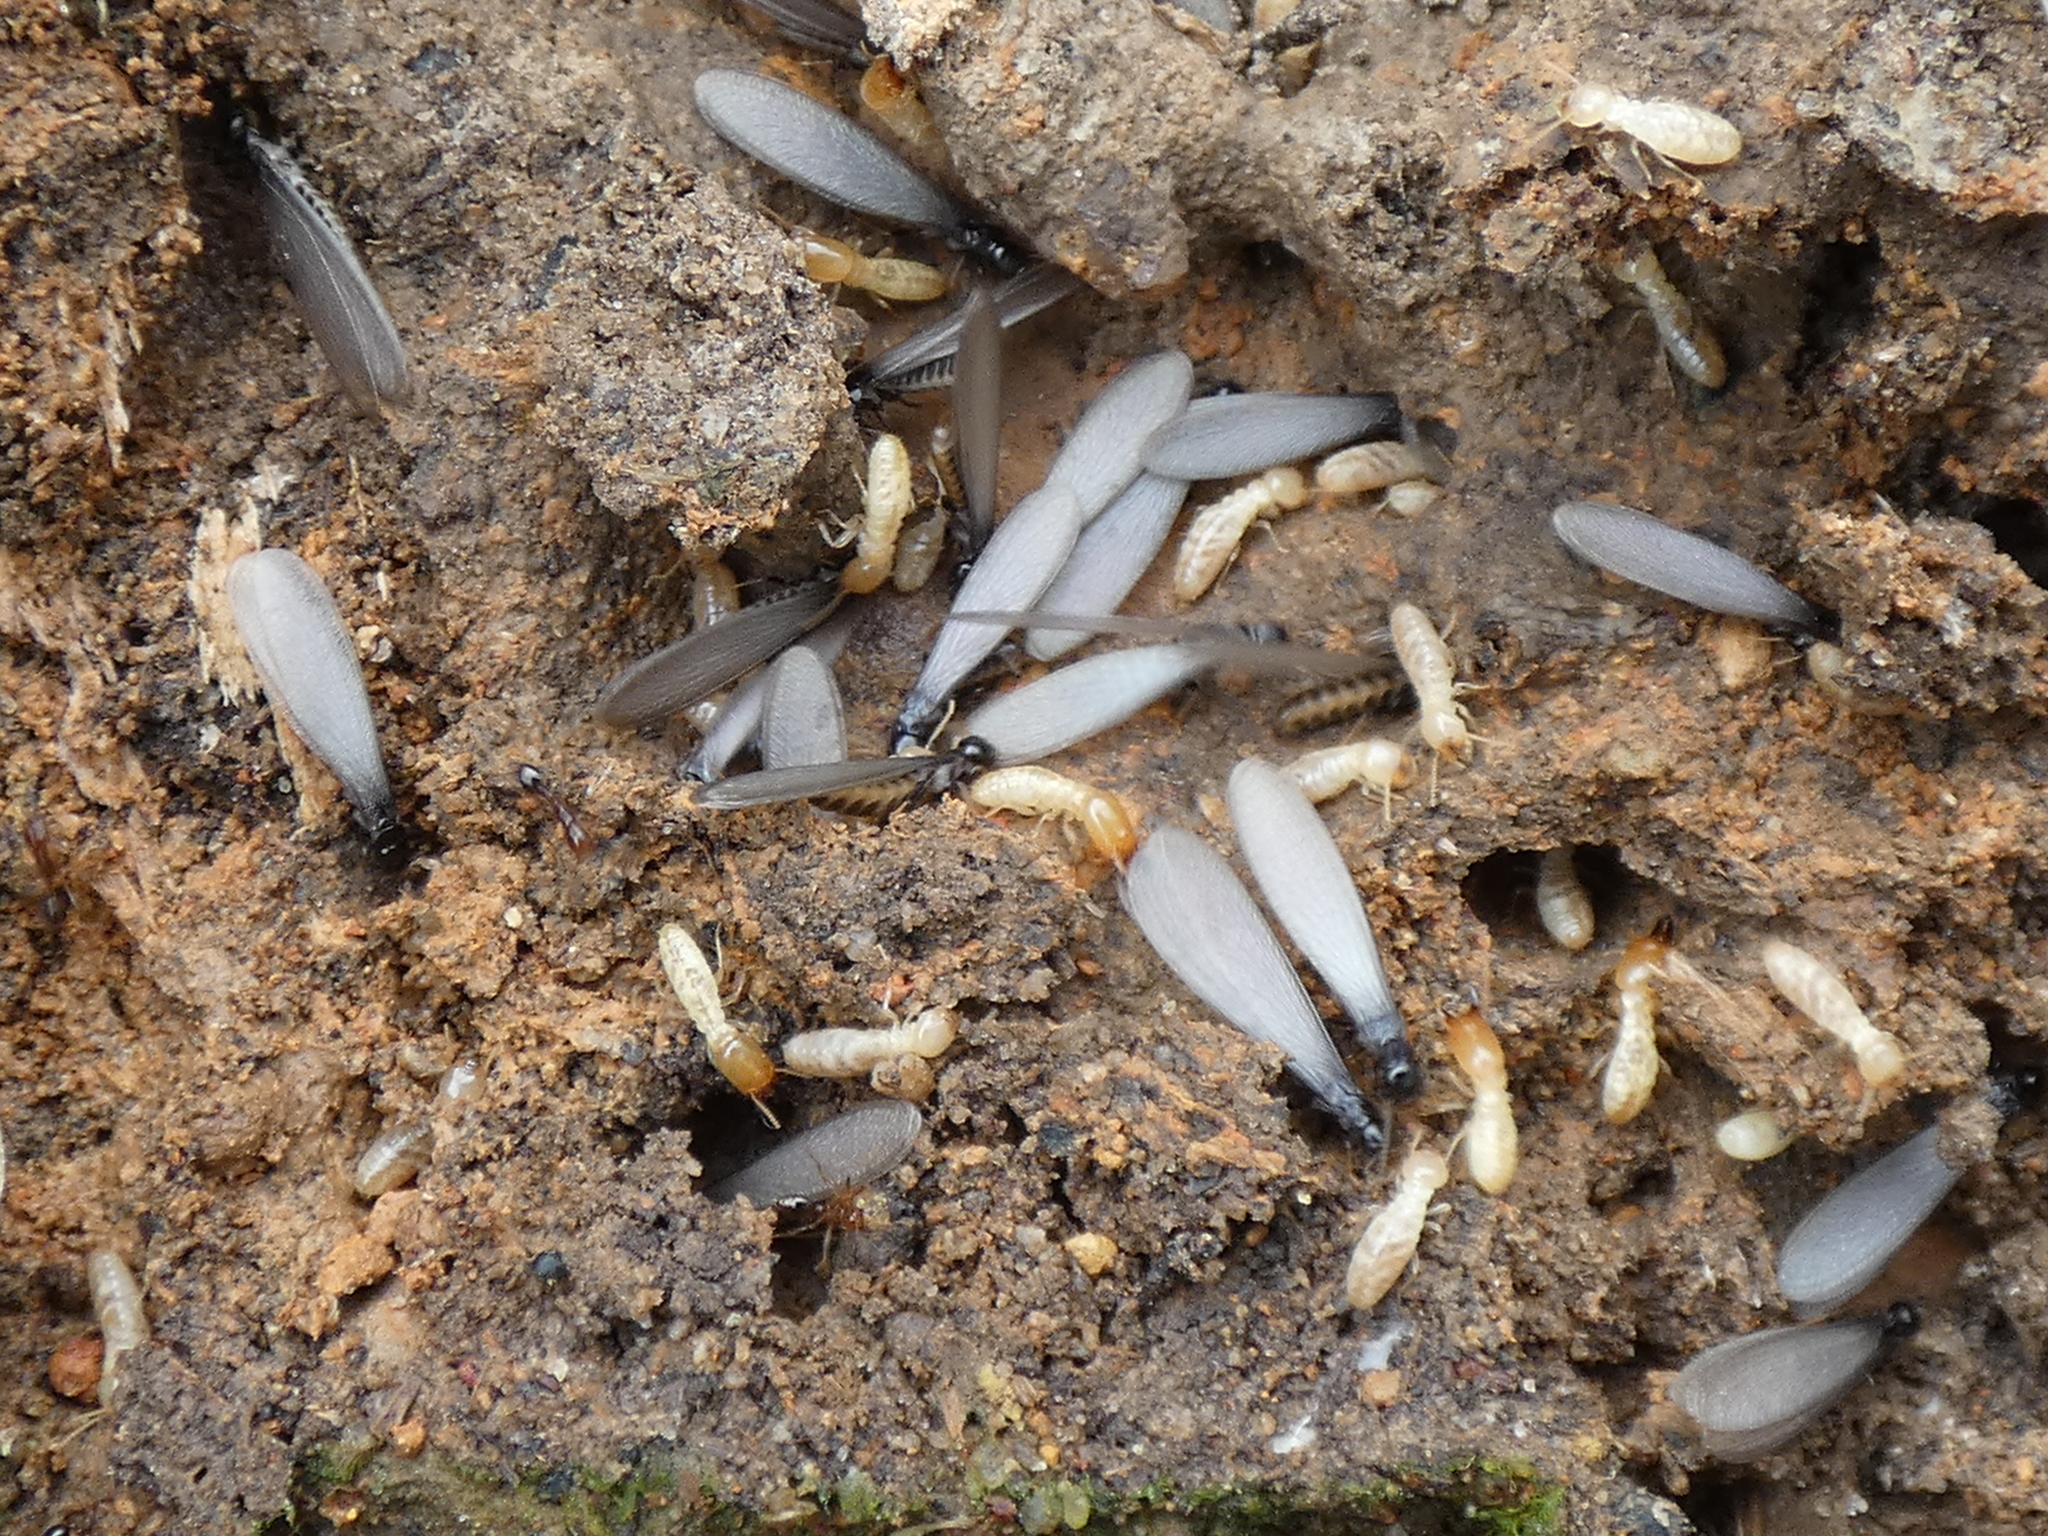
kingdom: Animalia
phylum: Arthropoda
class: Insecta
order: Blattodea
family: Rhinotermitidae
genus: Reticulitermes
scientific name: Reticulitermes flavipes
